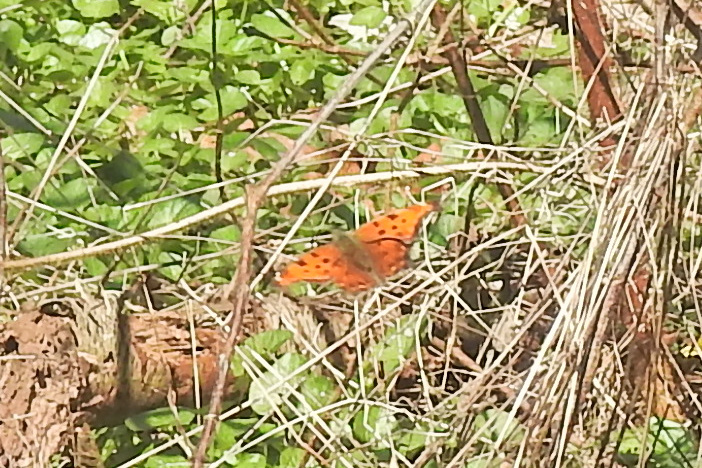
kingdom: Animalia
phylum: Arthropoda
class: Insecta
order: Lepidoptera
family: Nymphalidae
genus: Polygonia
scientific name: Polygonia comma
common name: Eastern comma
